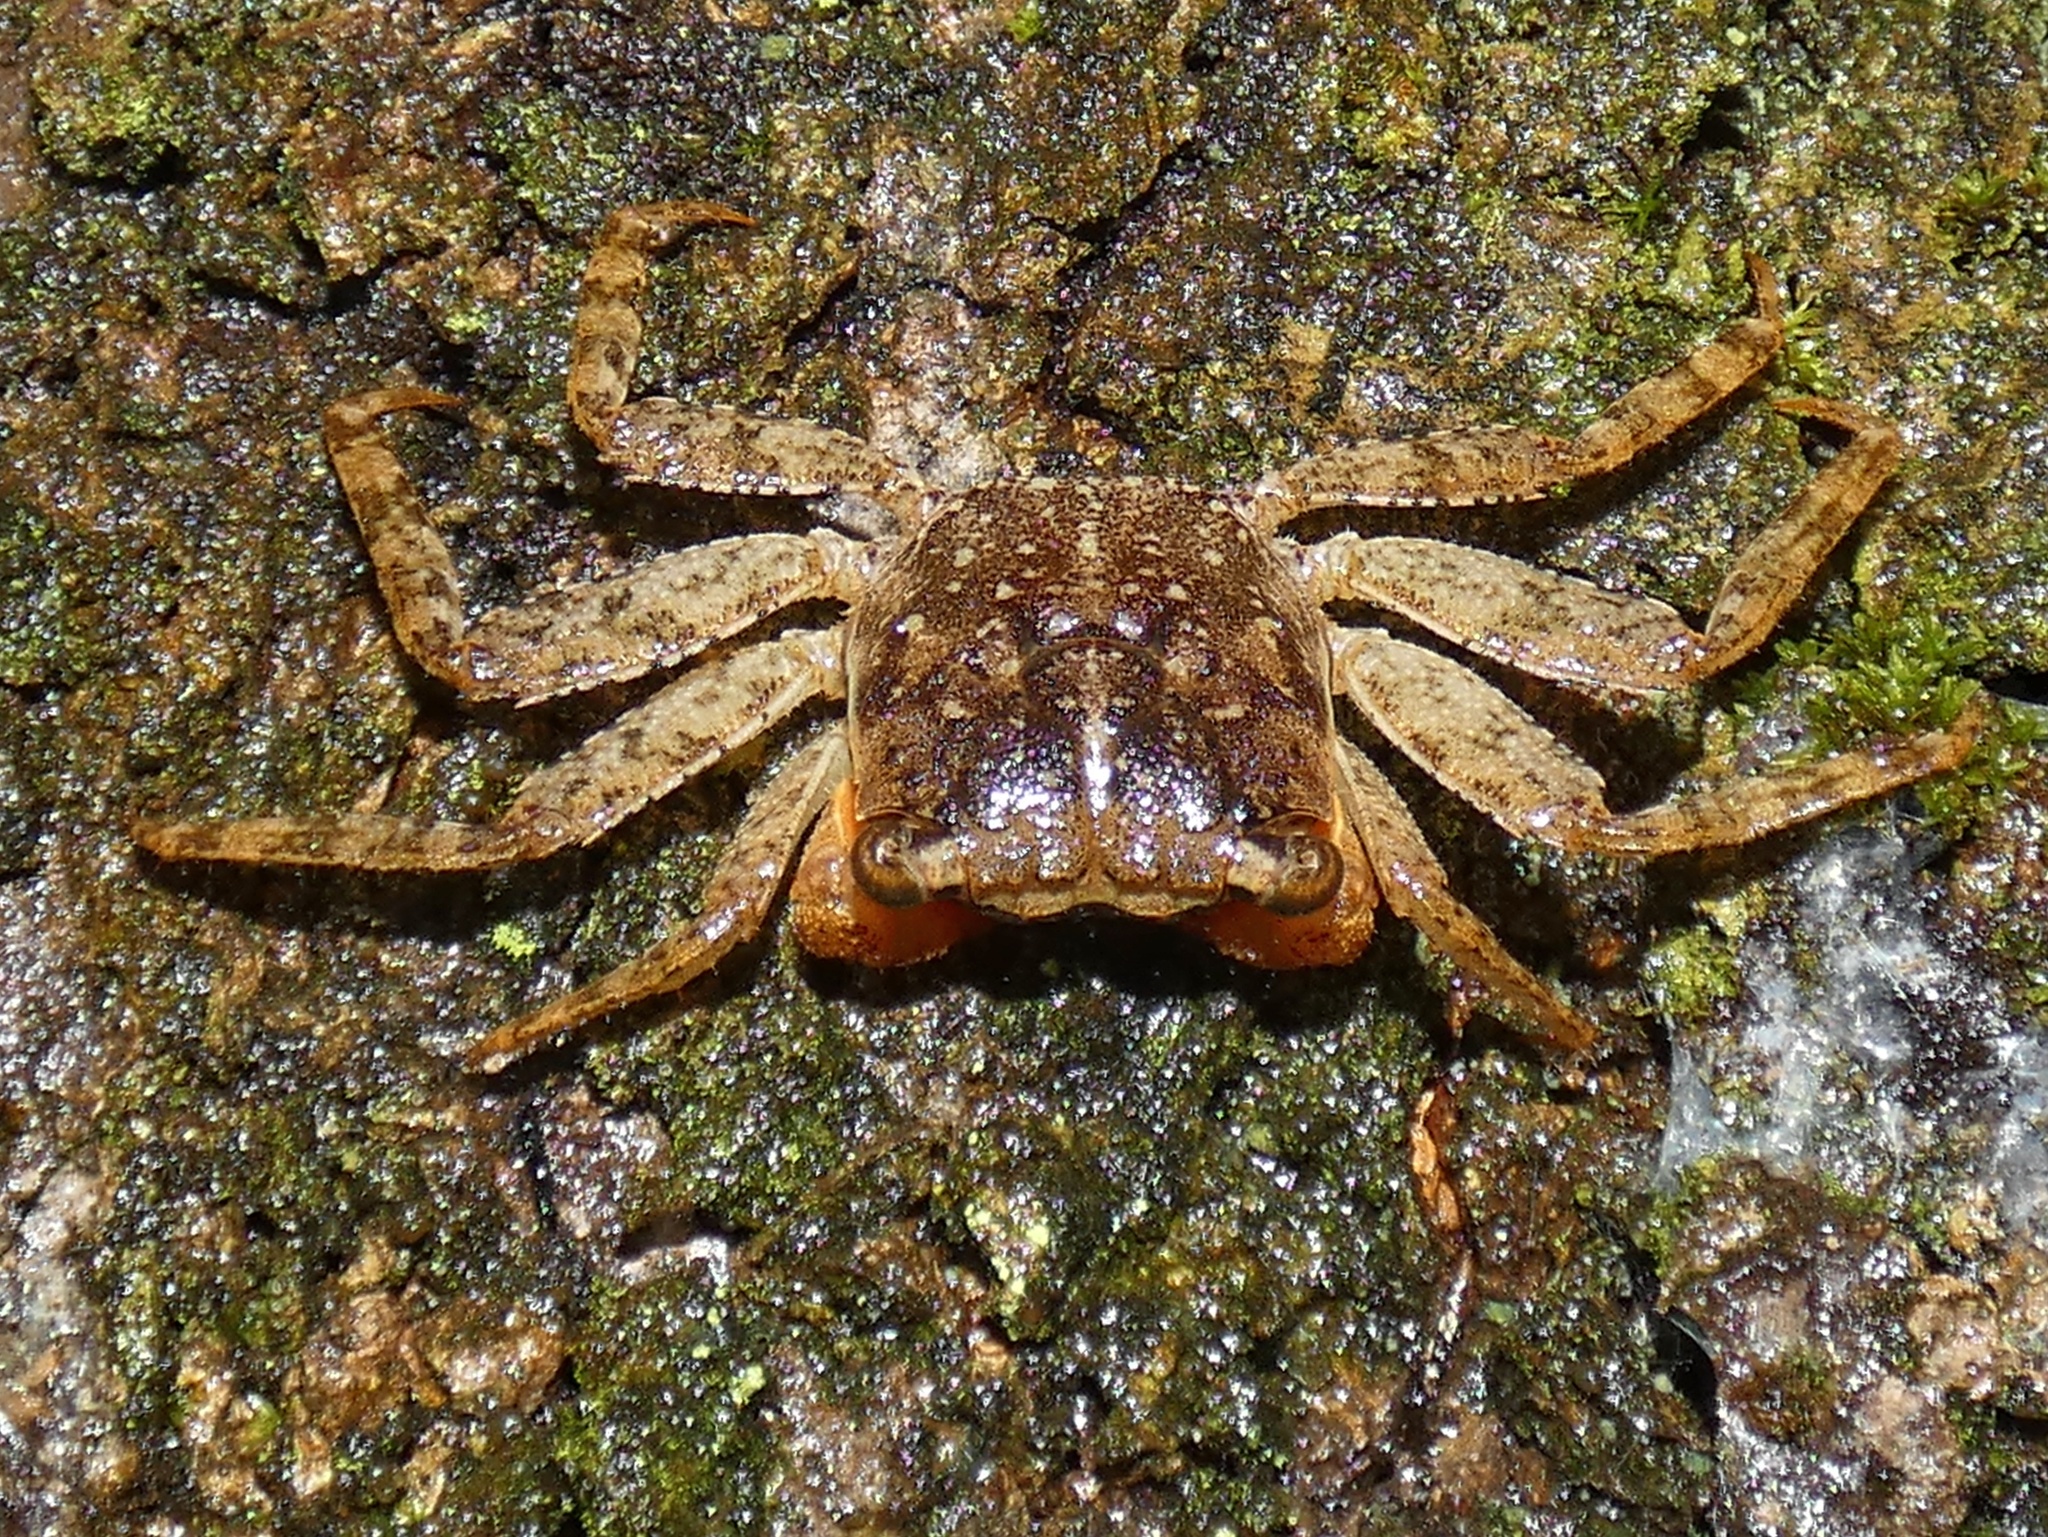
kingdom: Animalia
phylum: Arthropoda
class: Malacostraca
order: Decapoda
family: Sesarmidae
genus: Armases
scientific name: Armases angustum
